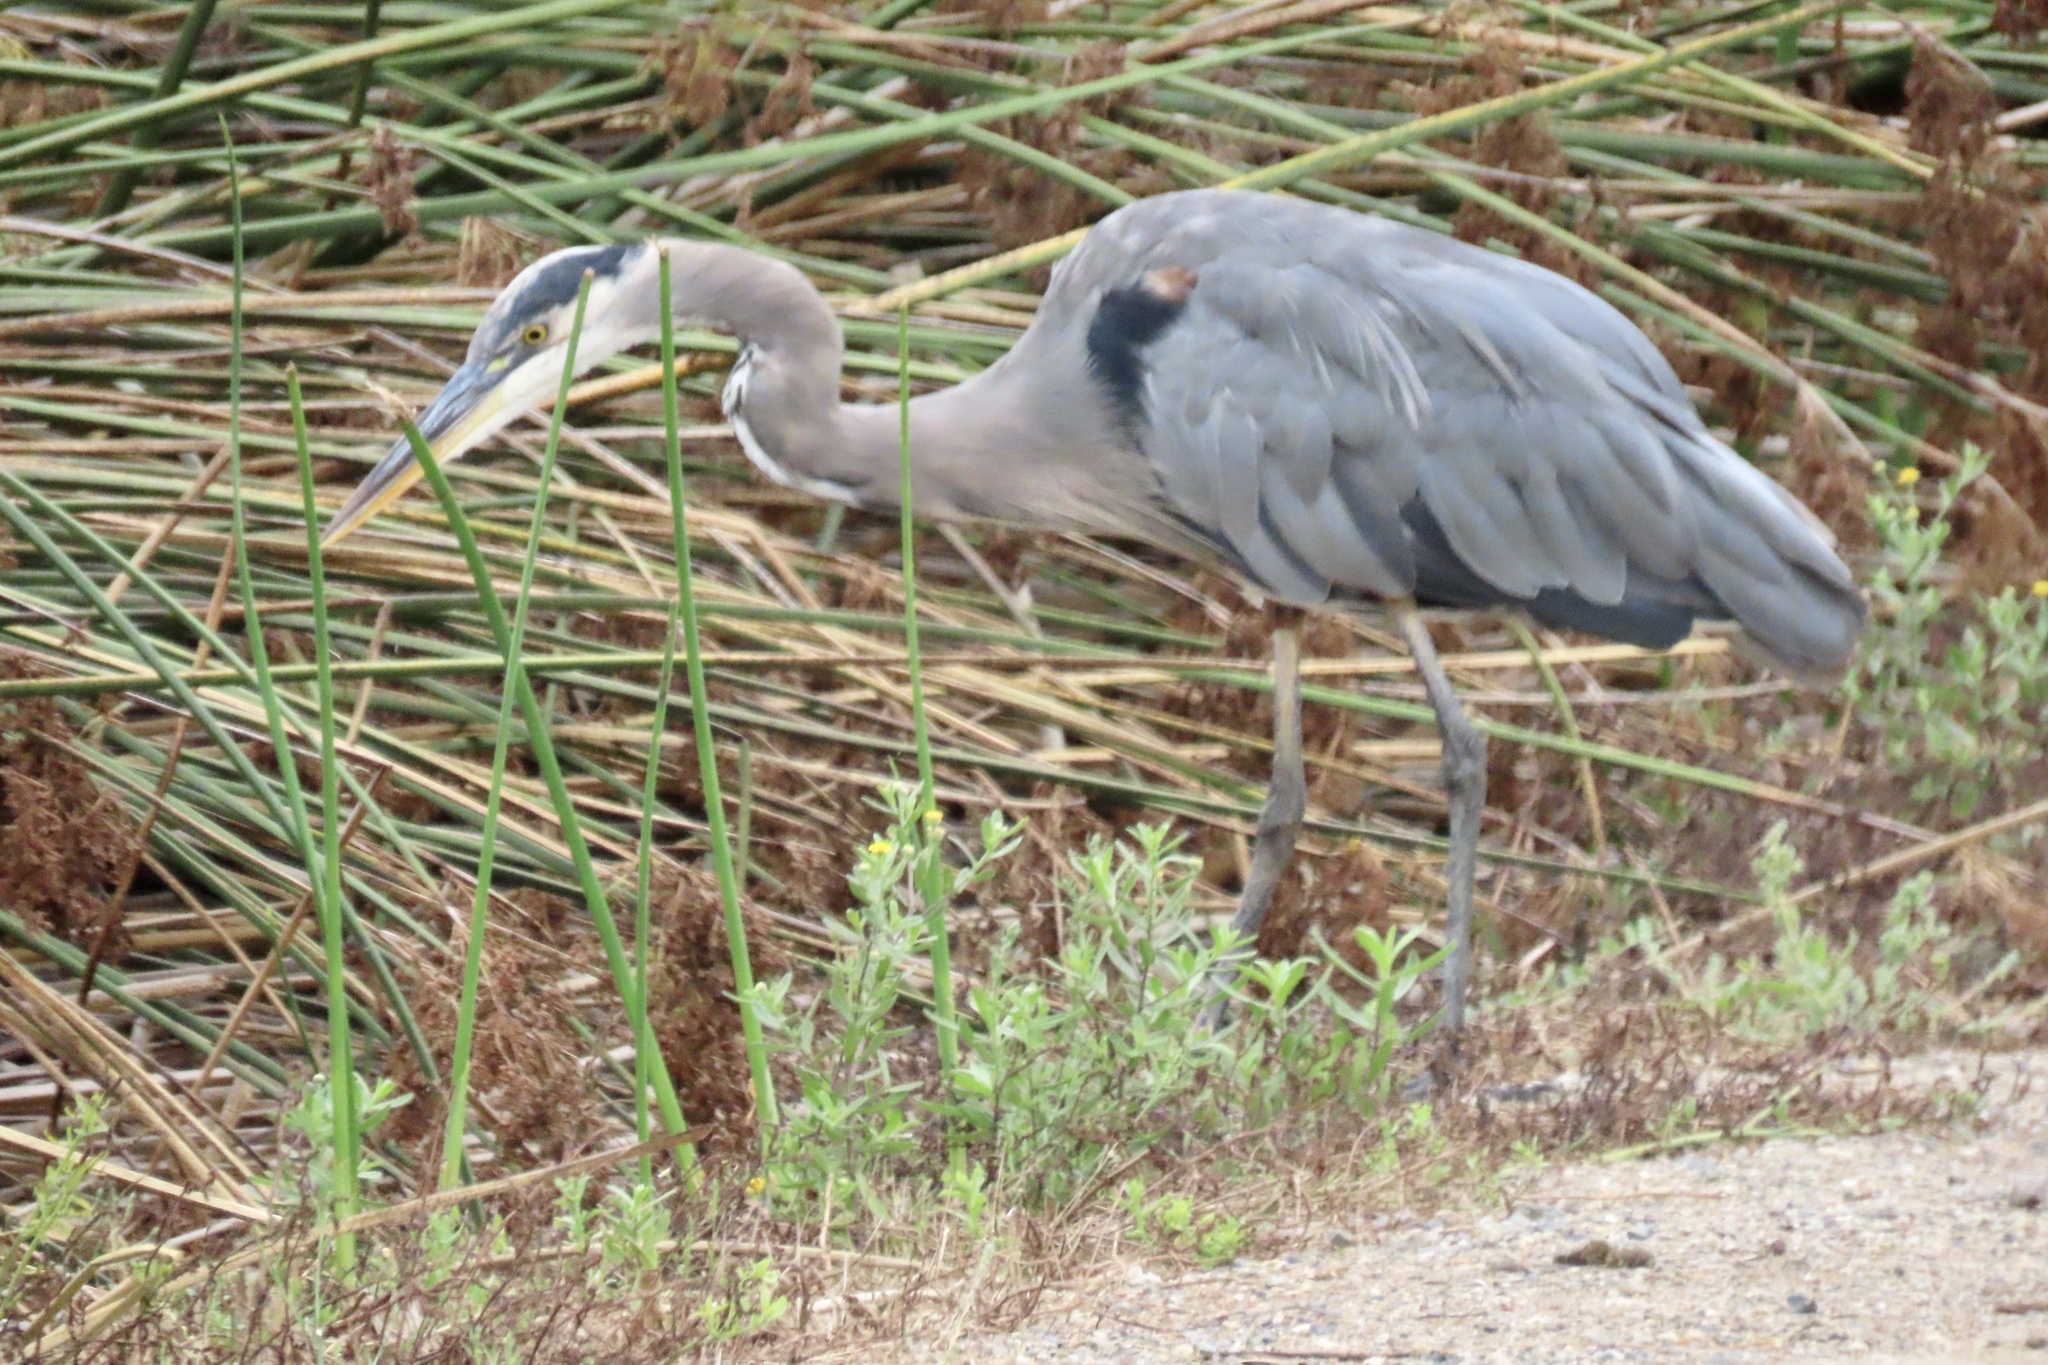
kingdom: Animalia
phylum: Chordata
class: Aves
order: Pelecaniformes
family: Ardeidae
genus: Ardea
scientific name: Ardea herodias
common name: Great blue heron
